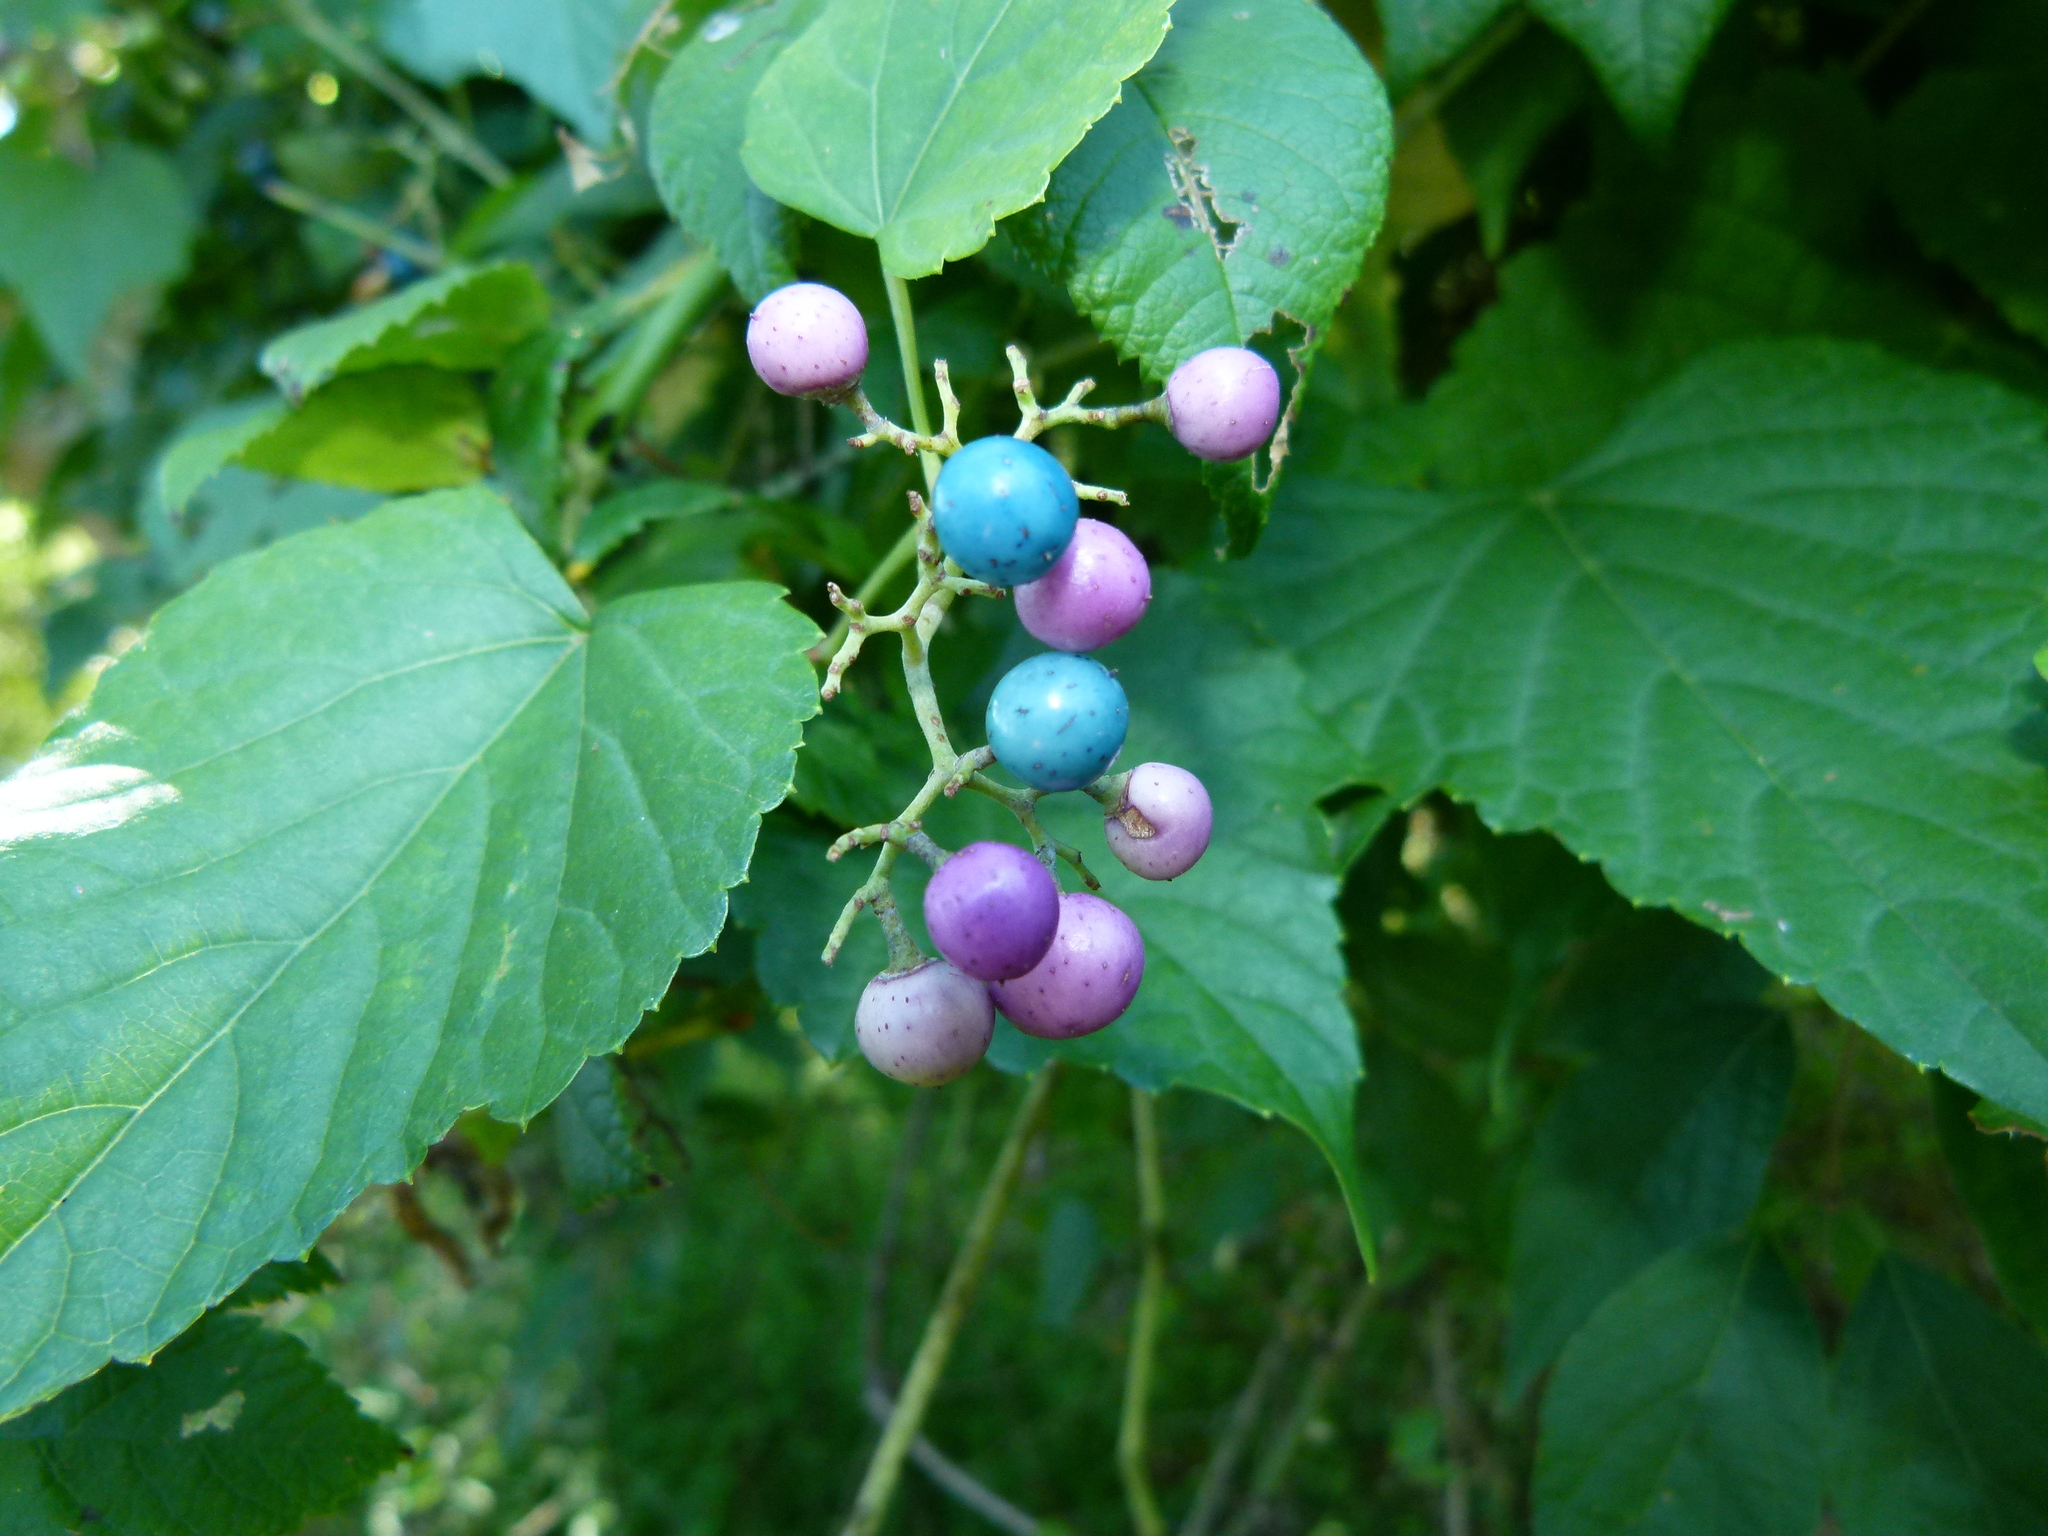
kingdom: Plantae
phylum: Tracheophyta
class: Magnoliopsida
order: Vitales
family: Vitaceae
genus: Ampelopsis
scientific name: Ampelopsis glandulosa
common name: Amur peppervine
